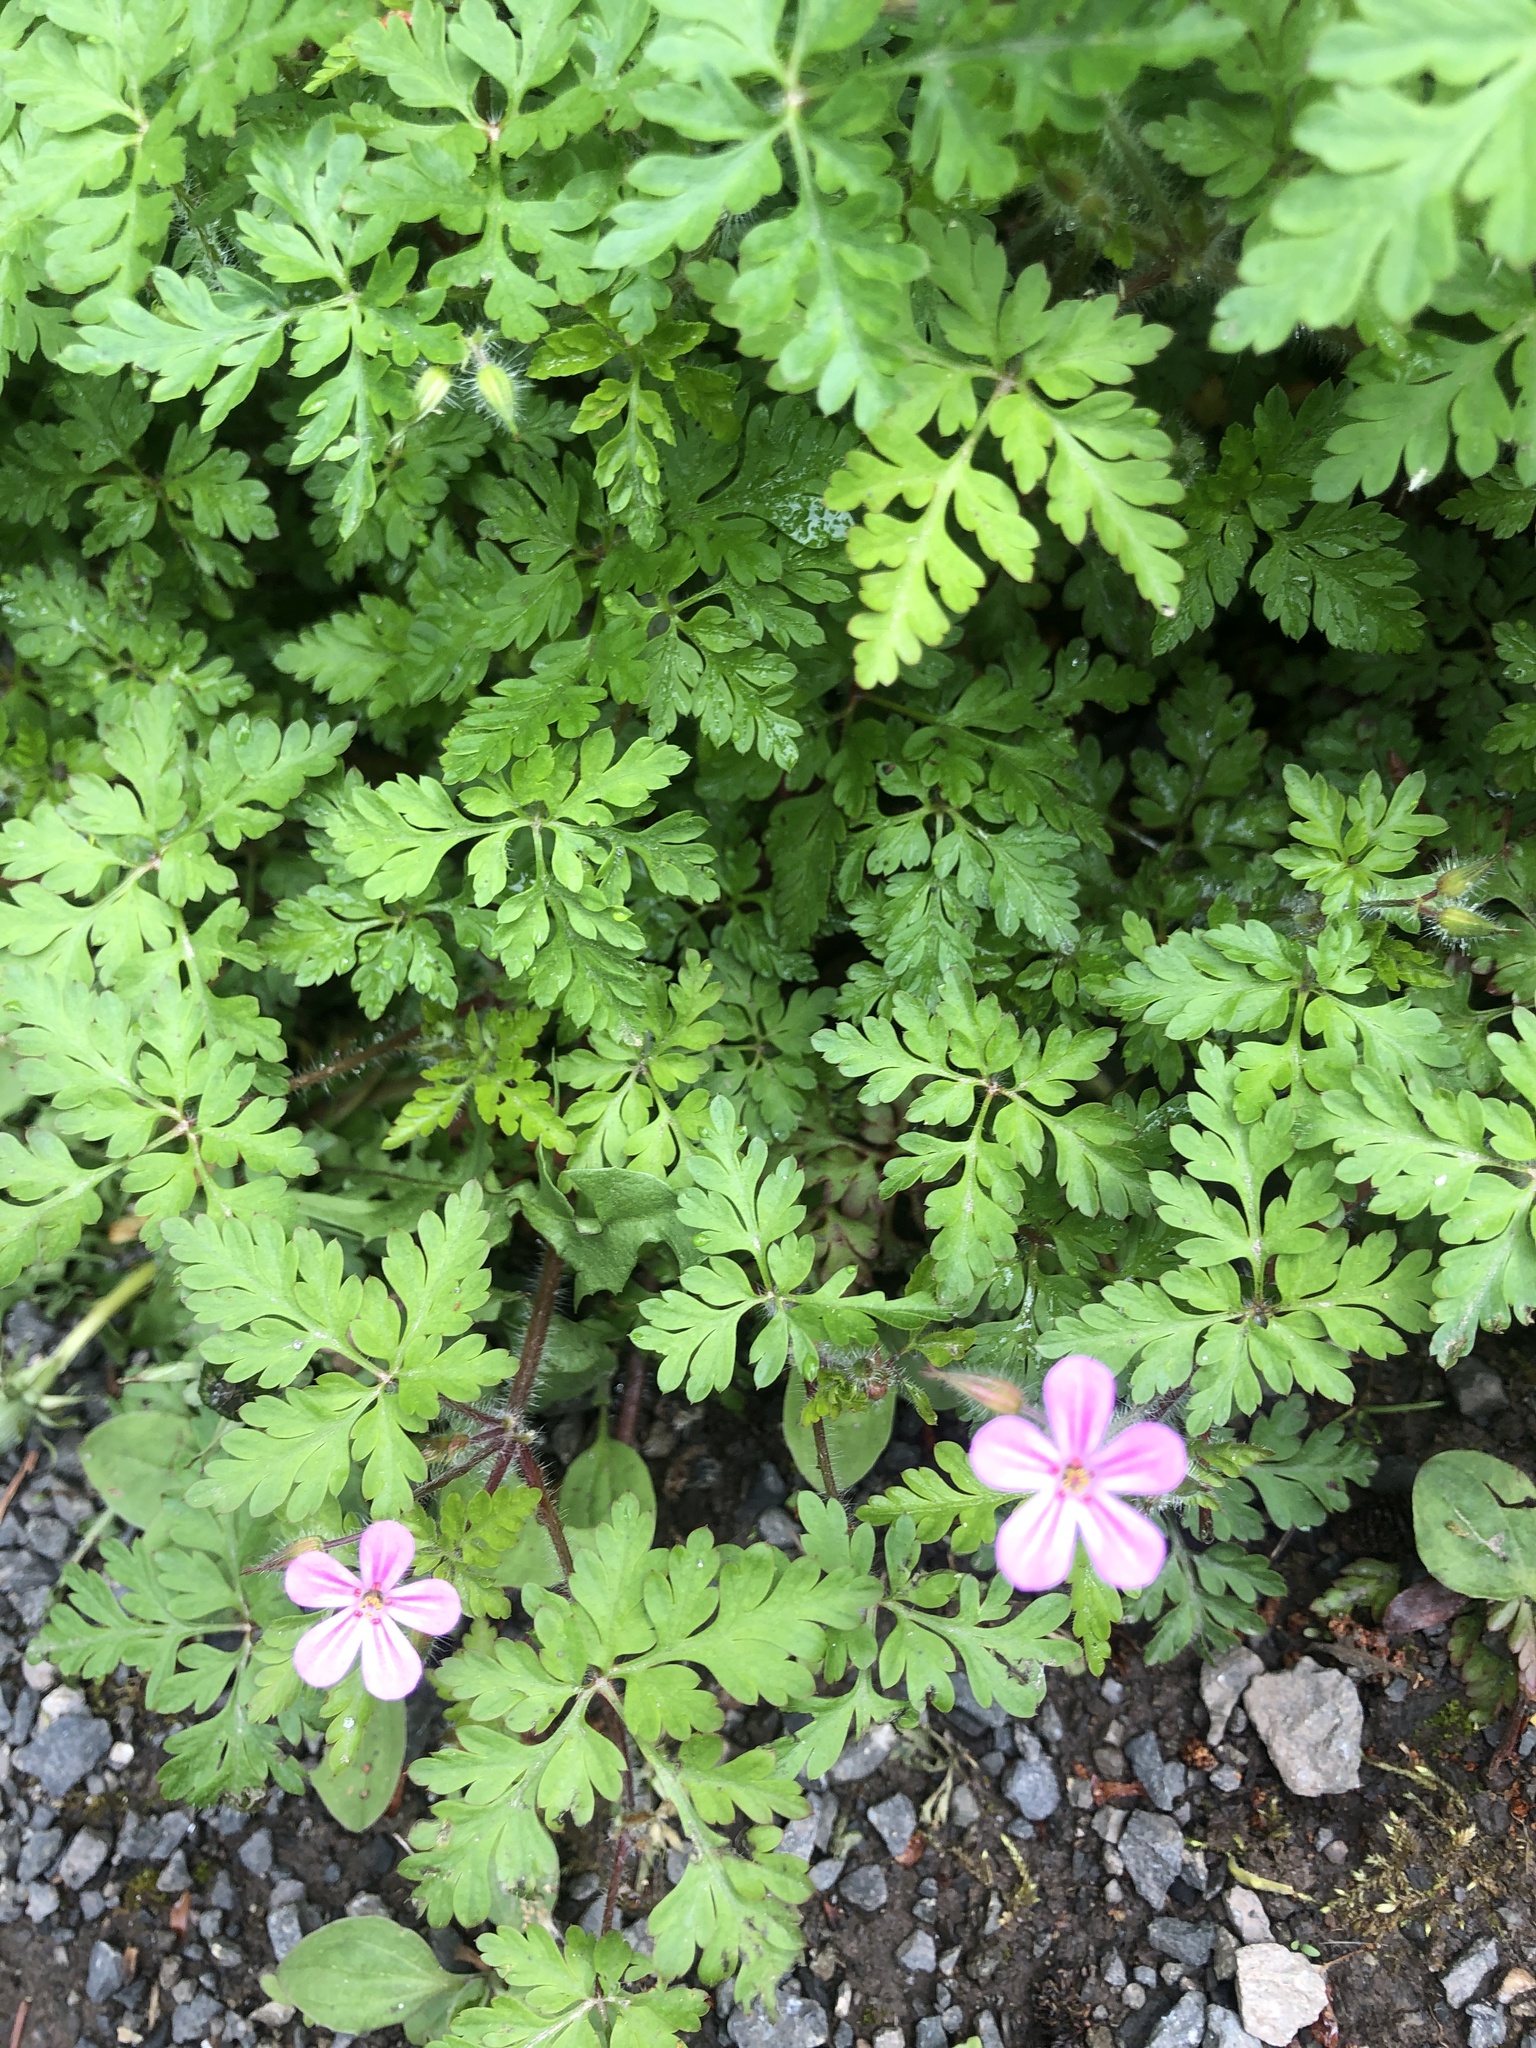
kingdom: Plantae
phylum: Tracheophyta
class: Magnoliopsida
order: Geraniales
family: Geraniaceae
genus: Geranium
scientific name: Geranium robertianum
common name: Herb-robert
